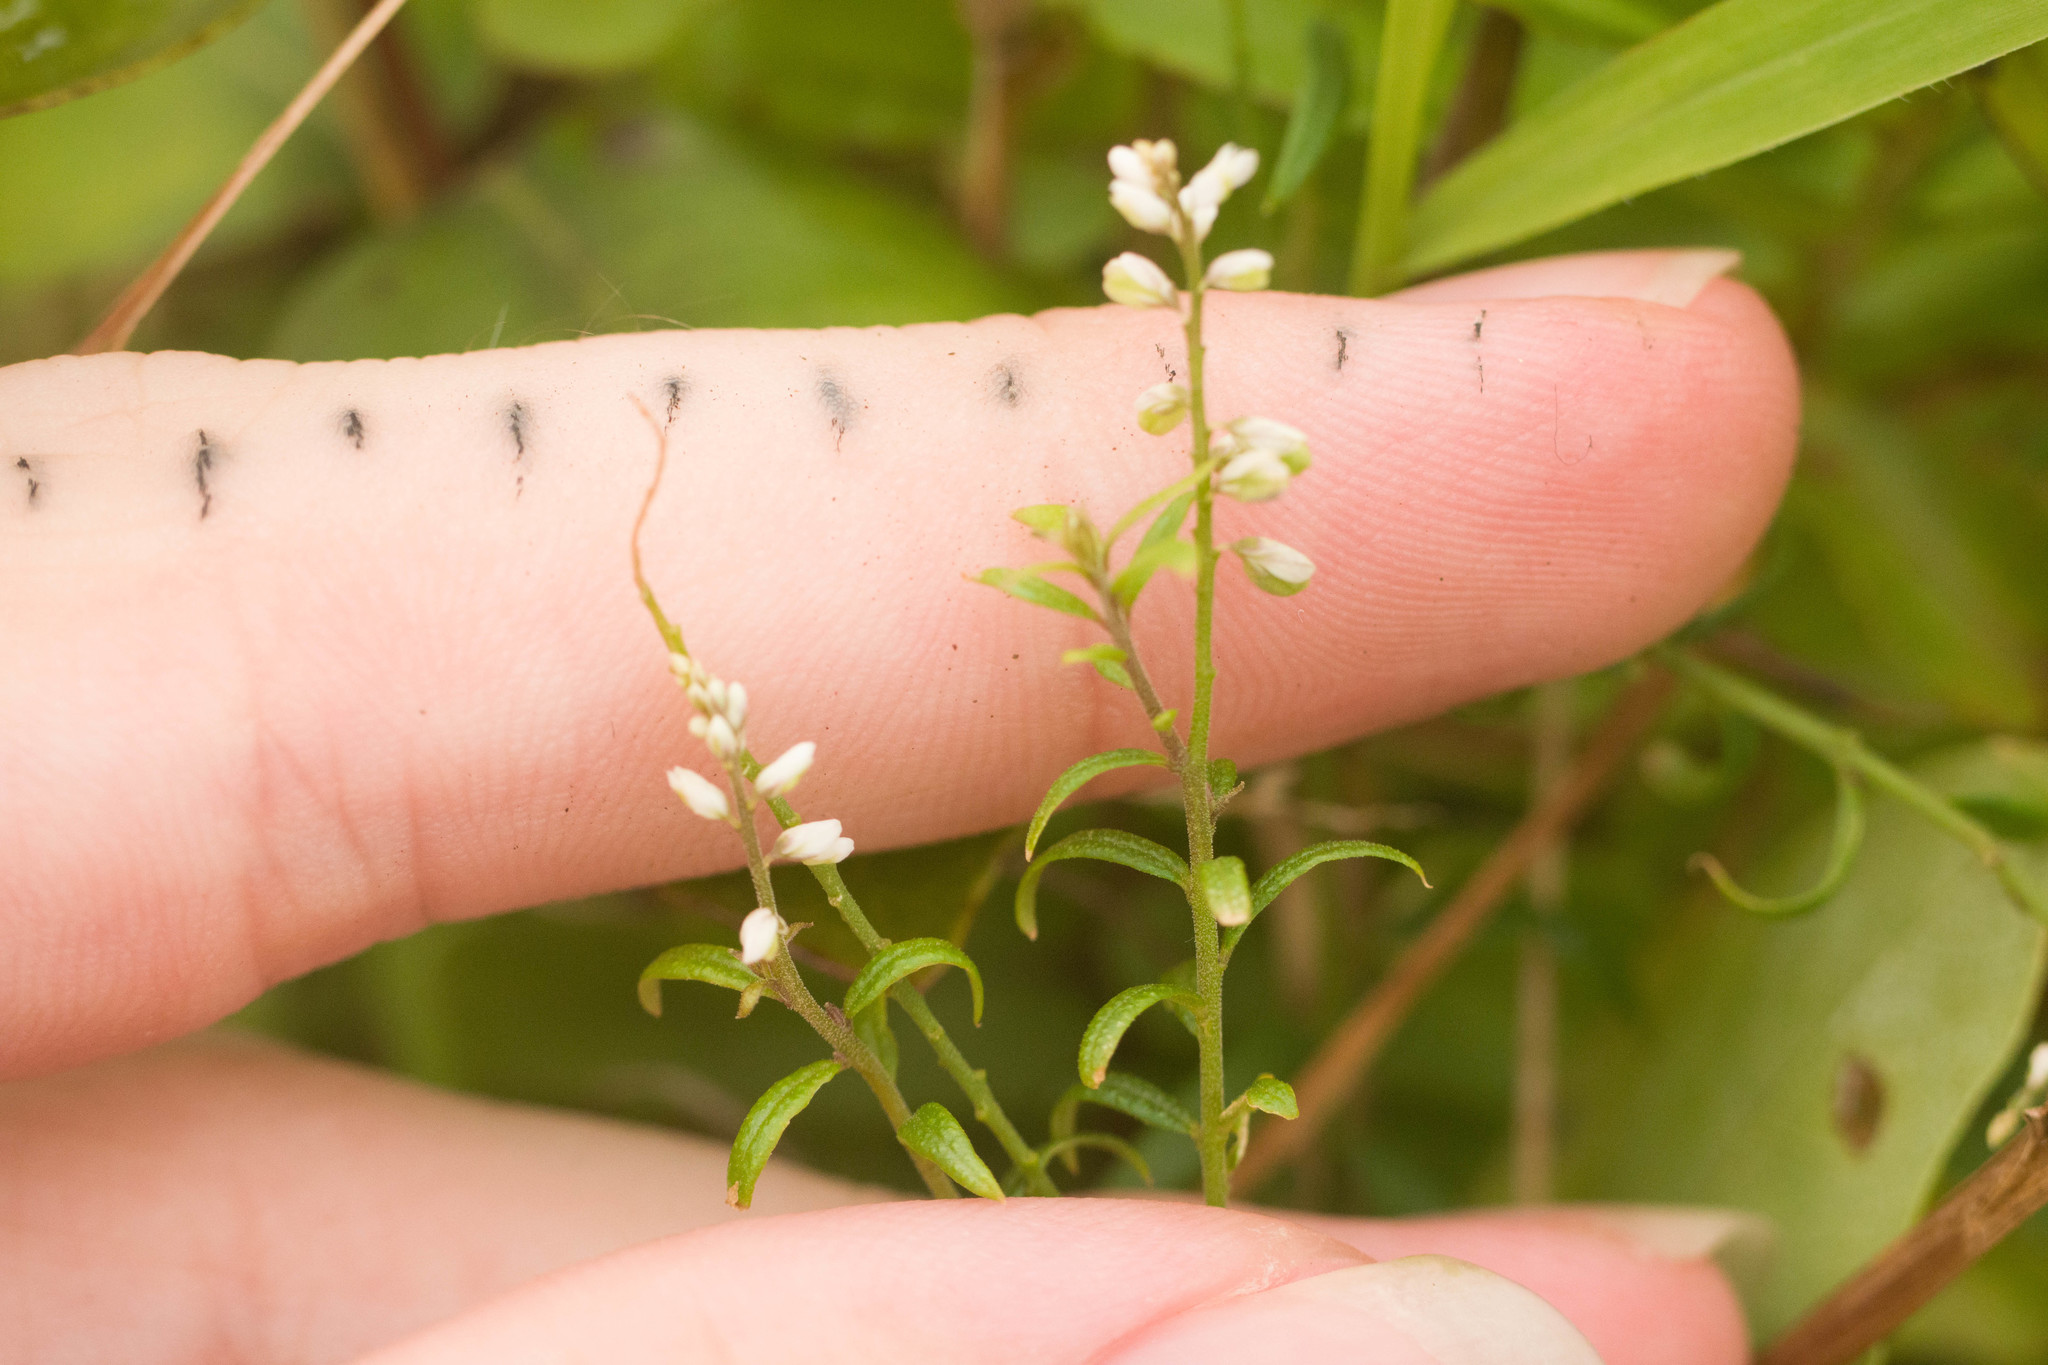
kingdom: Plantae
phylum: Tracheophyta
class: Magnoliopsida
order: Fabales
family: Polygalaceae
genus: Polygala
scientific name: Polygala paniculata
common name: Orosne
